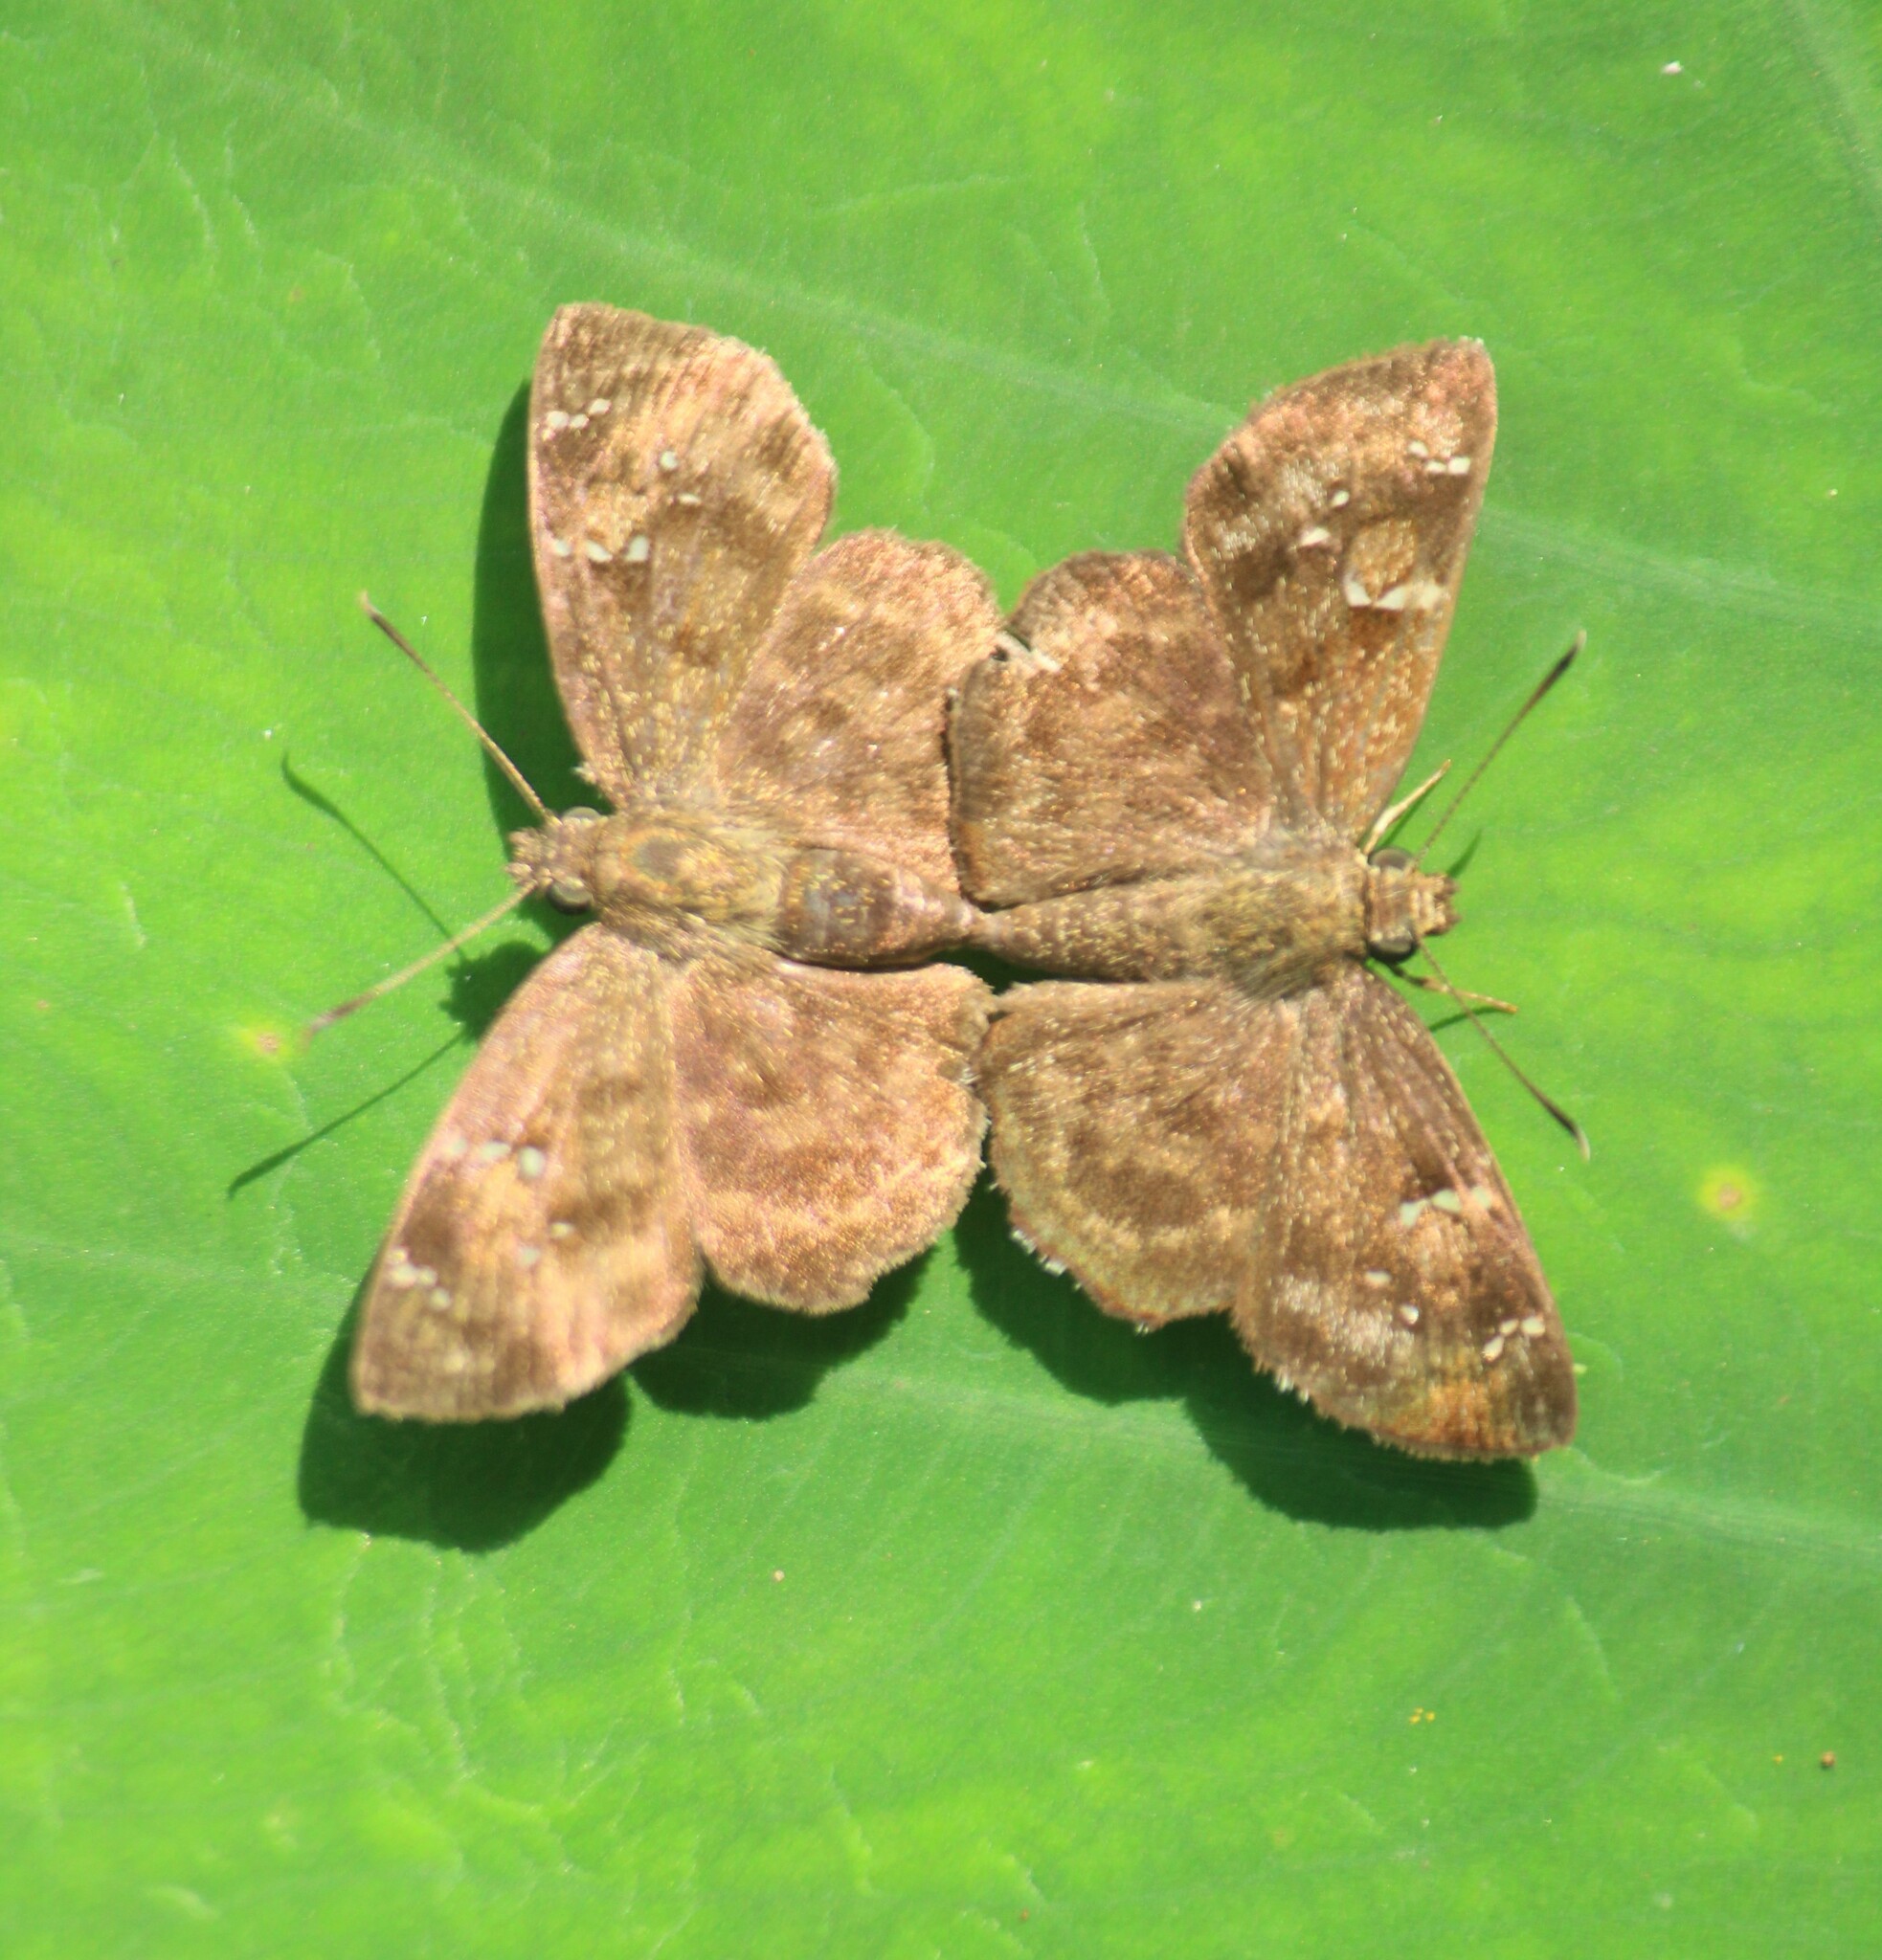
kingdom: Animalia
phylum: Arthropoda
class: Insecta
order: Lepidoptera
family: Hesperiidae
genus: Sarangesa
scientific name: Sarangesa dasahara
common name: Common small flat
